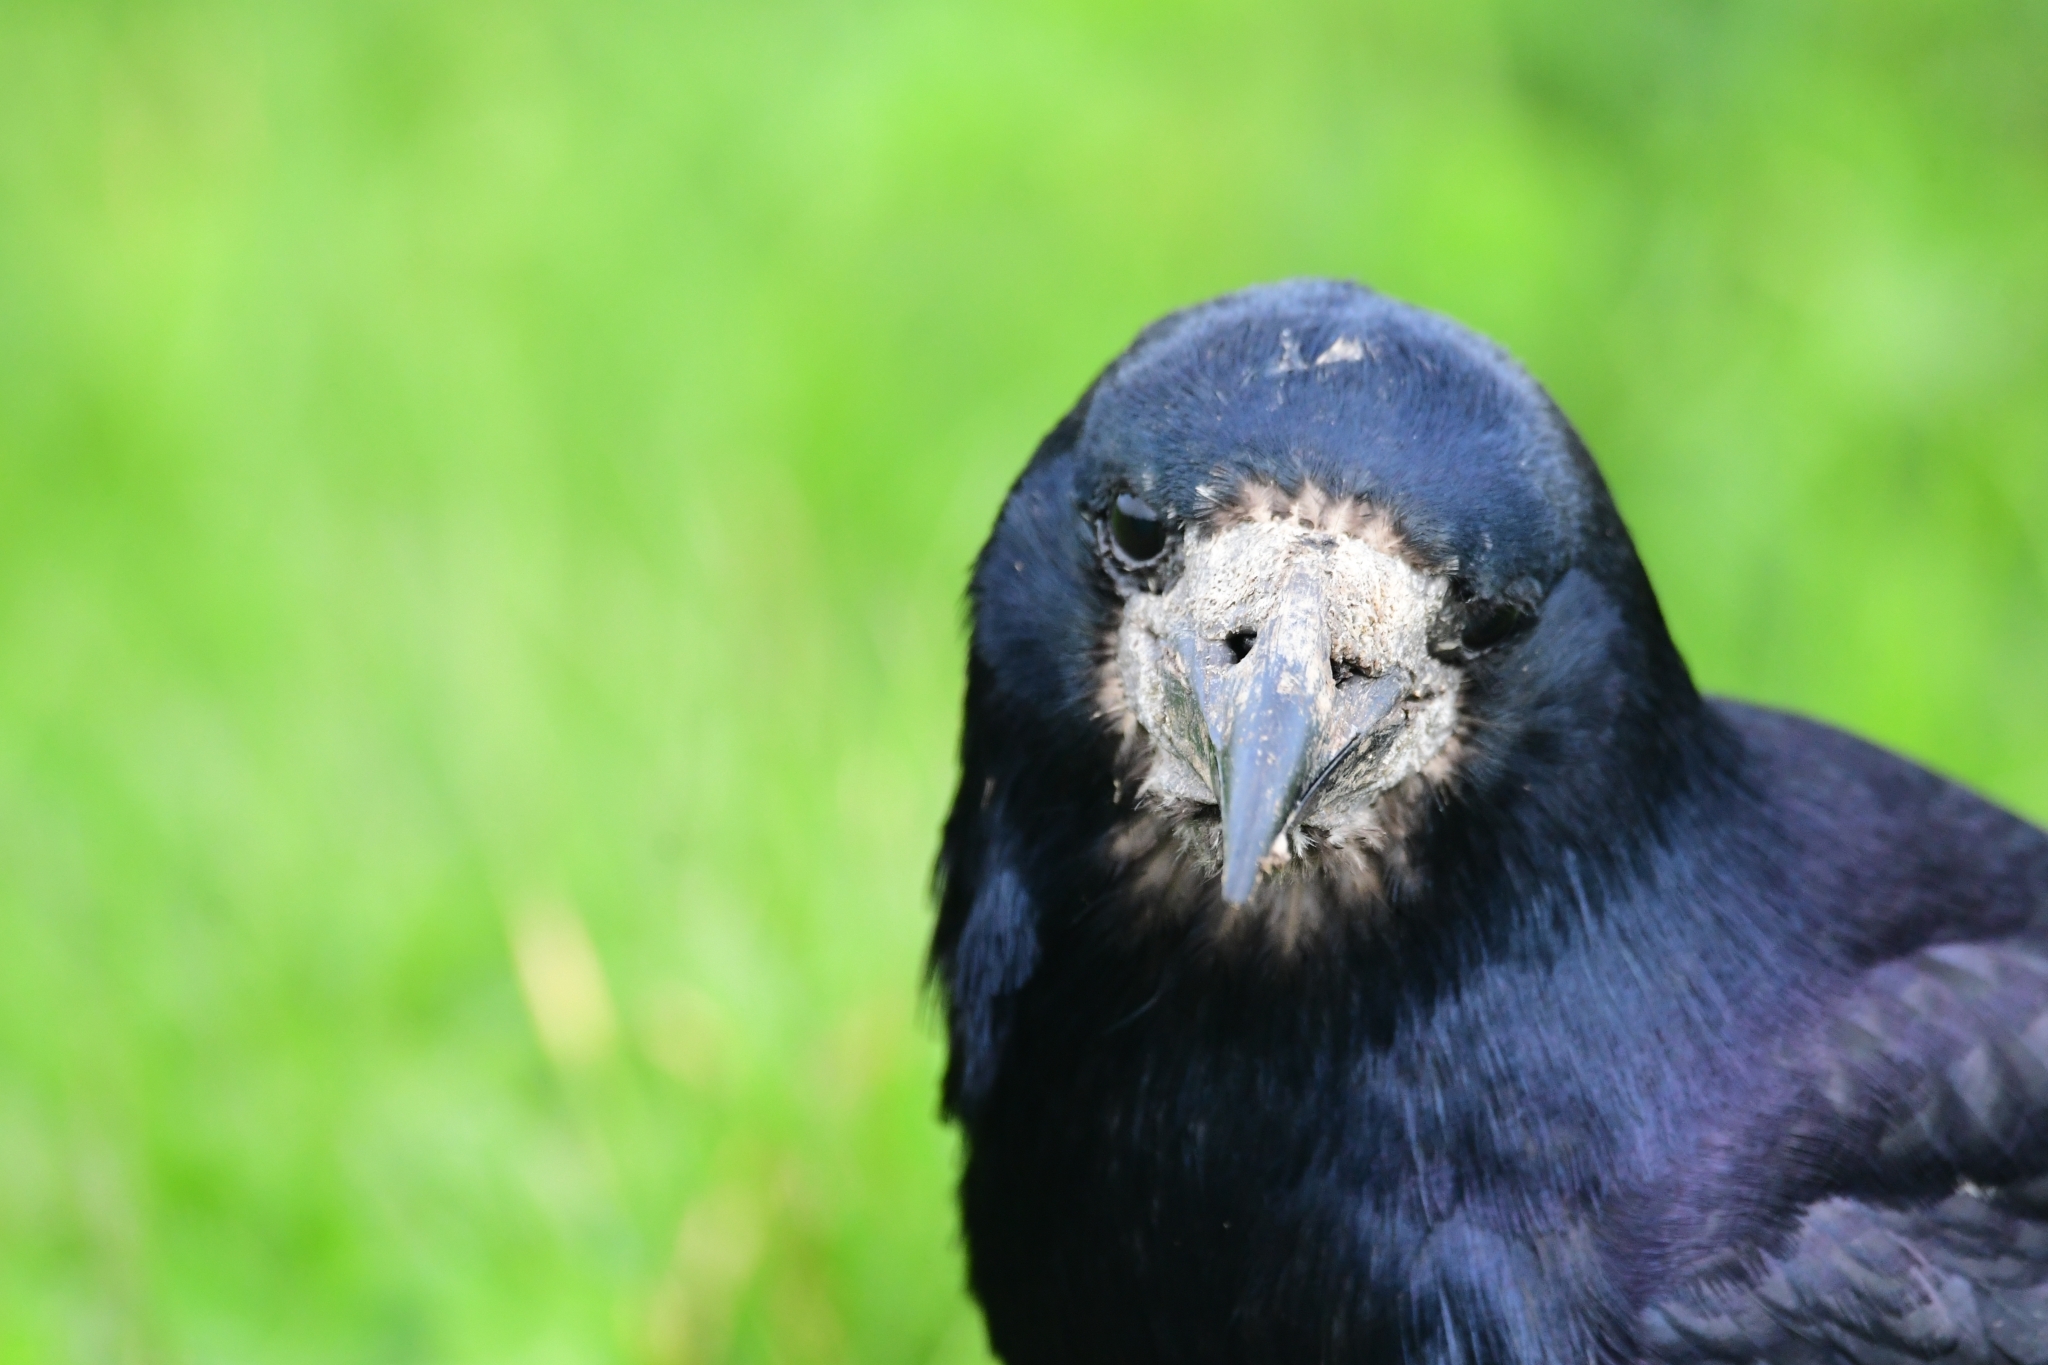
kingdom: Animalia
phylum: Chordata
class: Aves
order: Passeriformes
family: Corvidae
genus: Corvus
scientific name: Corvus frugilegus
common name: Rook
